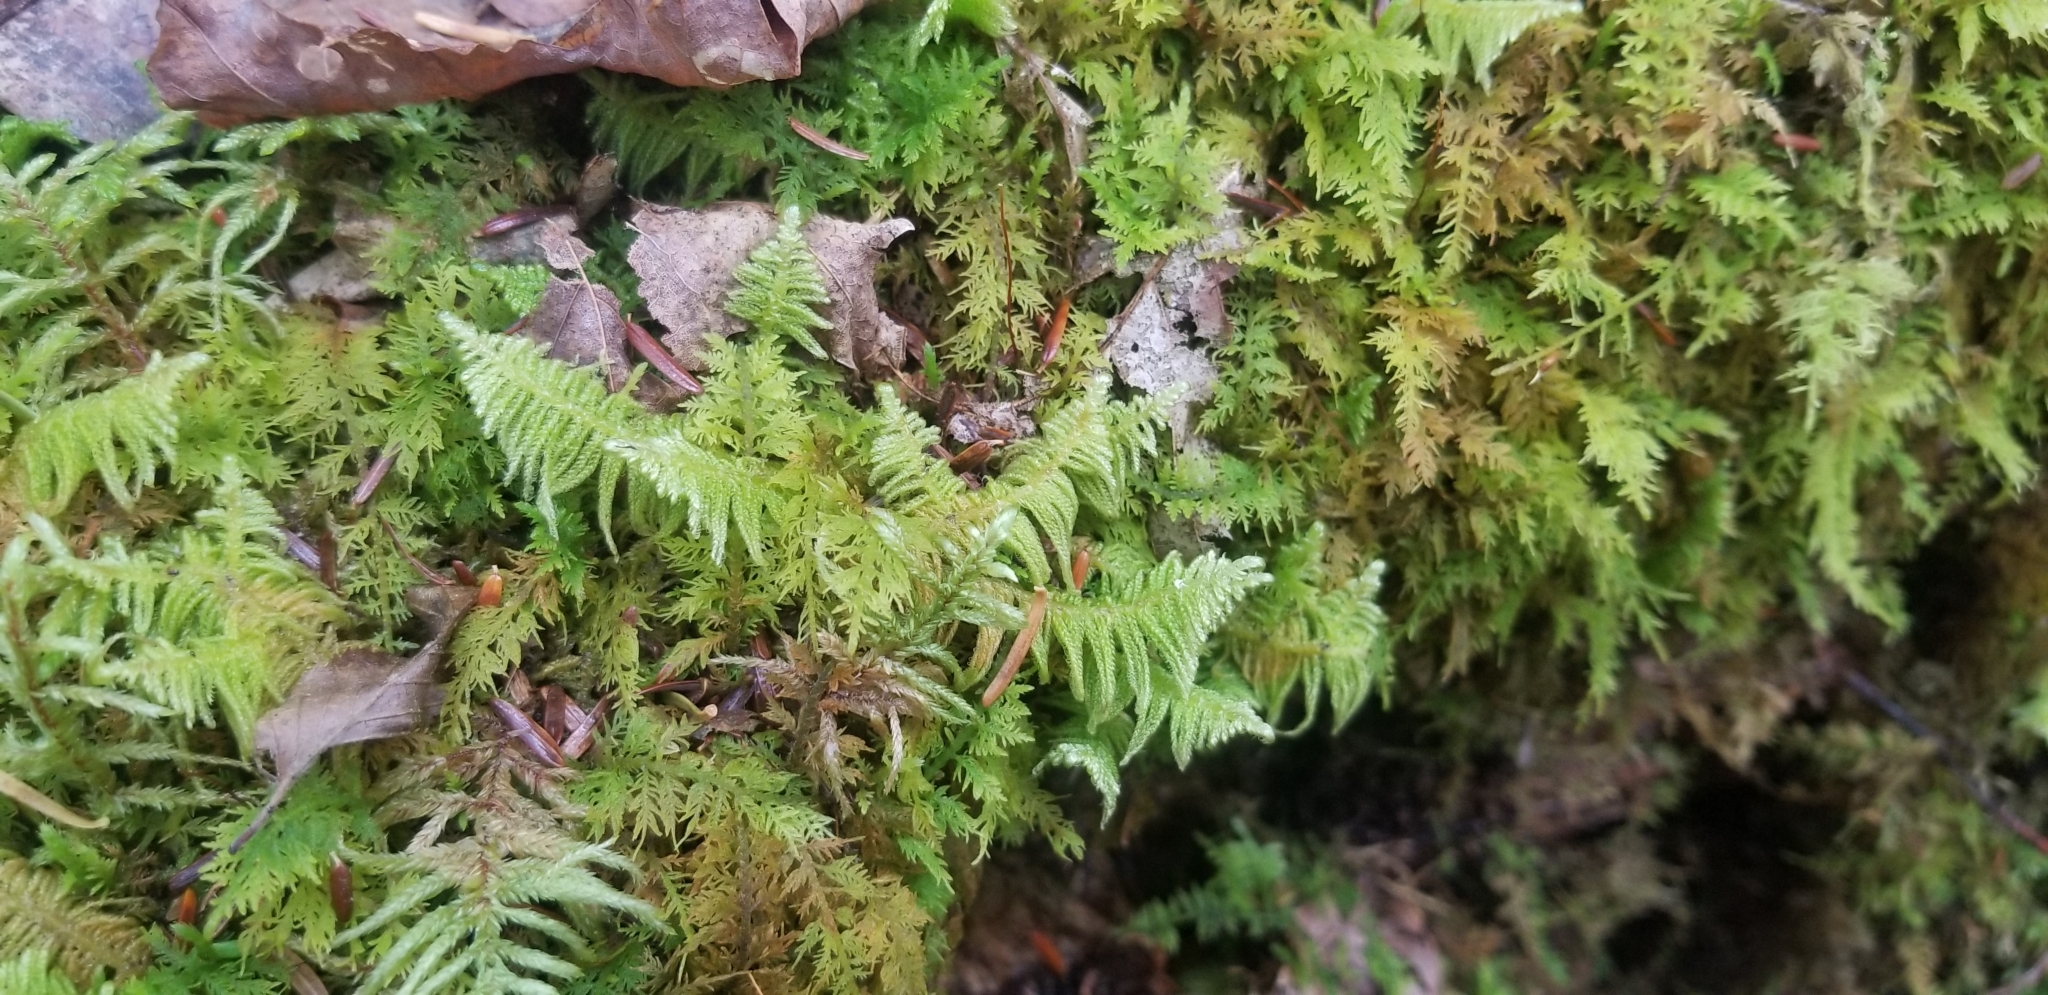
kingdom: Plantae
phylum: Bryophyta
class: Bryopsida
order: Hypnales
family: Pylaisiaceae
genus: Ptilium
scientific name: Ptilium crista-castrensis
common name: Knight's plume moss
